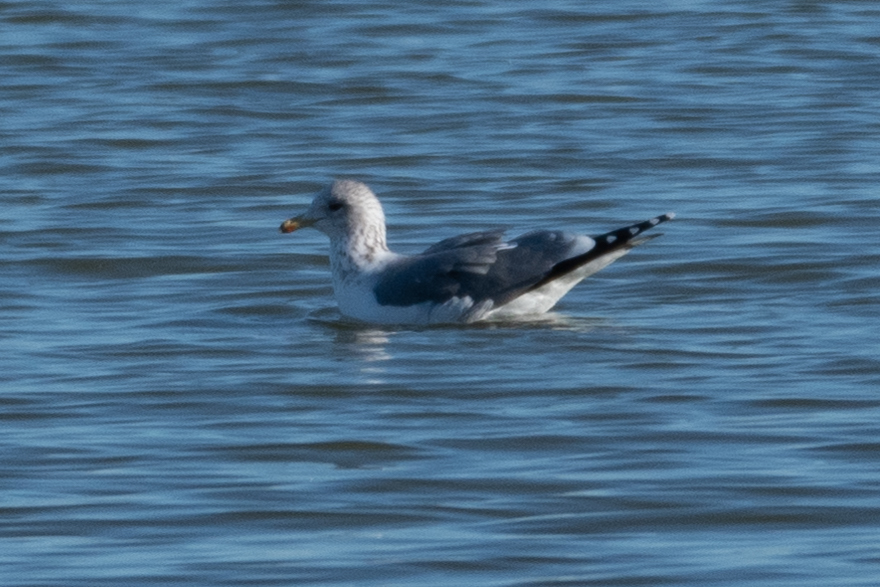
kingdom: Animalia
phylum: Chordata
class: Aves
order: Charadriiformes
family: Laridae
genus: Larus
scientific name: Larus californicus
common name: California gull
